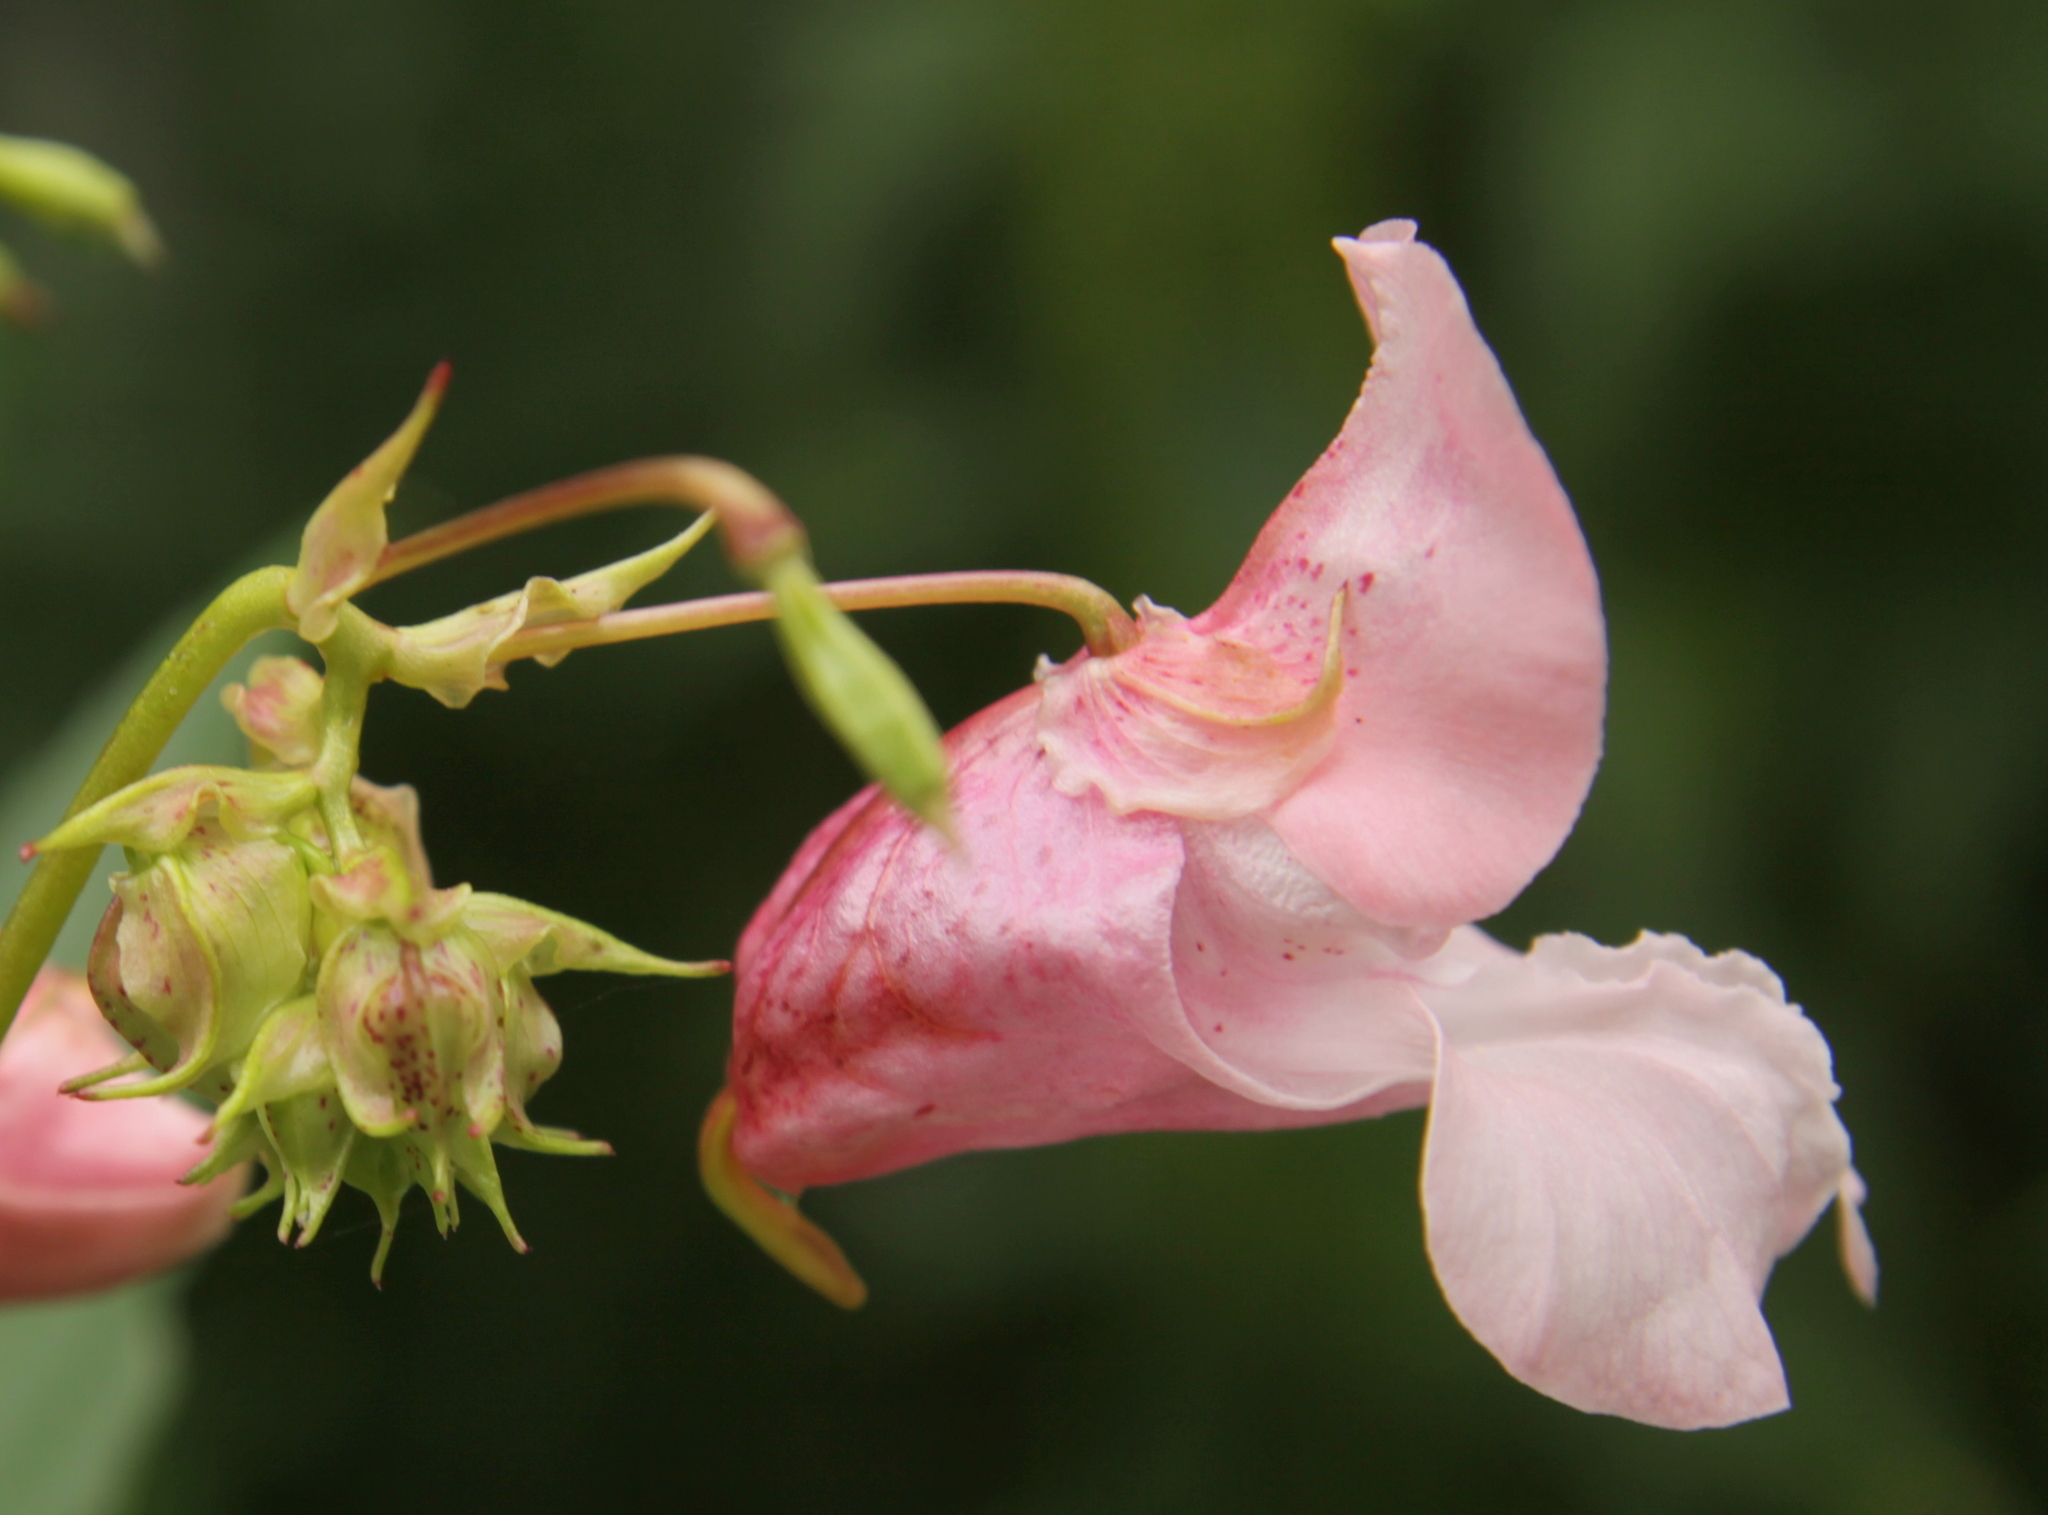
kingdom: Plantae
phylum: Tracheophyta
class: Magnoliopsida
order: Ericales
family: Balsaminaceae
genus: Impatiens
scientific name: Impatiens glandulifera
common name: Himalayan balsam
